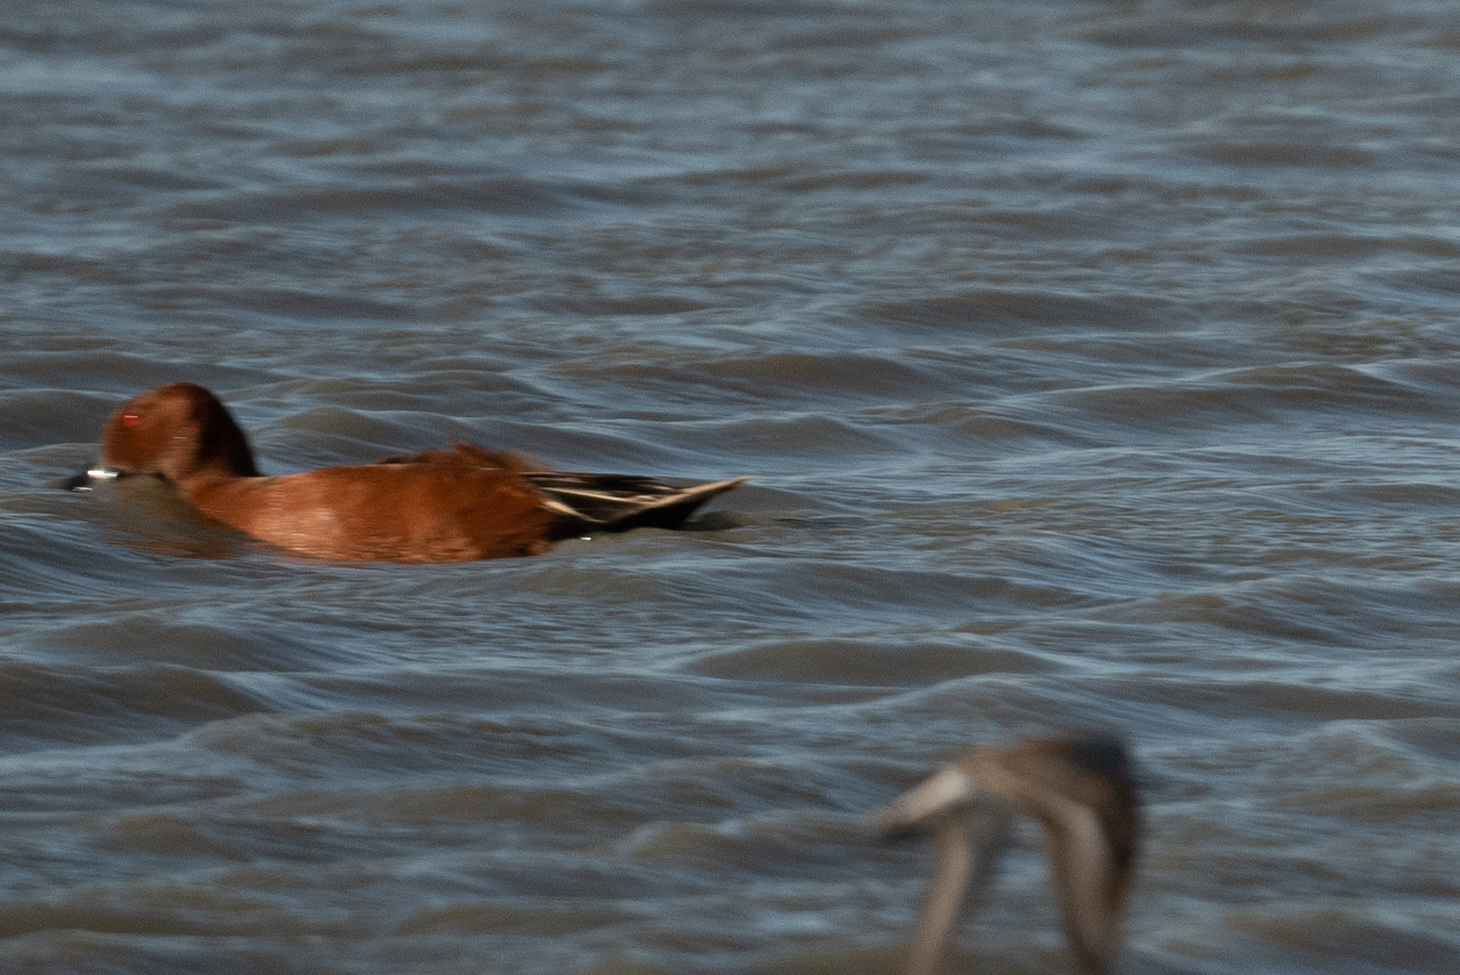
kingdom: Animalia
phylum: Chordata
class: Aves
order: Anseriformes
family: Anatidae
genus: Spatula
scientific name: Spatula cyanoptera
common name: Cinnamon teal
